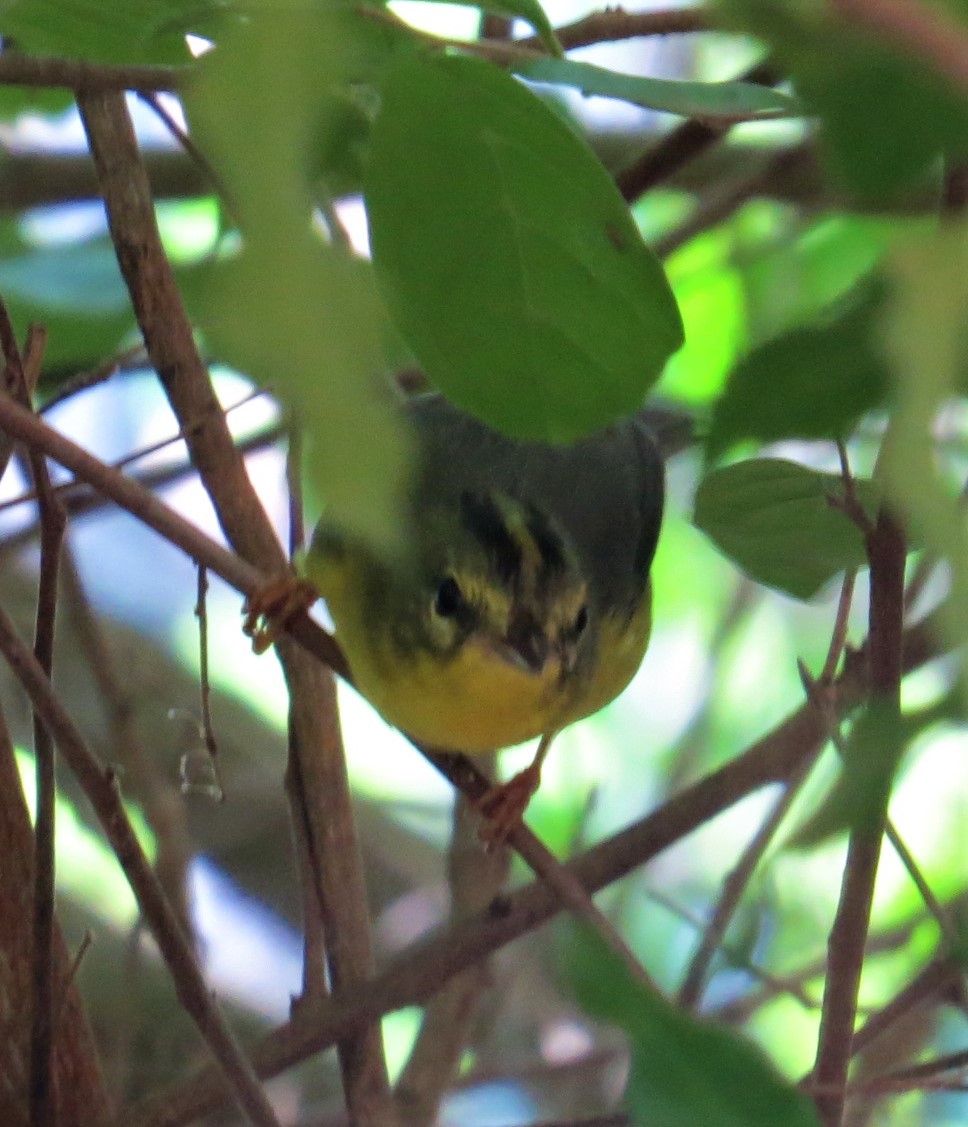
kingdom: Animalia
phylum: Chordata
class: Aves
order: Passeriformes
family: Parulidae
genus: Basileuterus
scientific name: Basileuterus culicivorus
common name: Golden-crowned warbler
